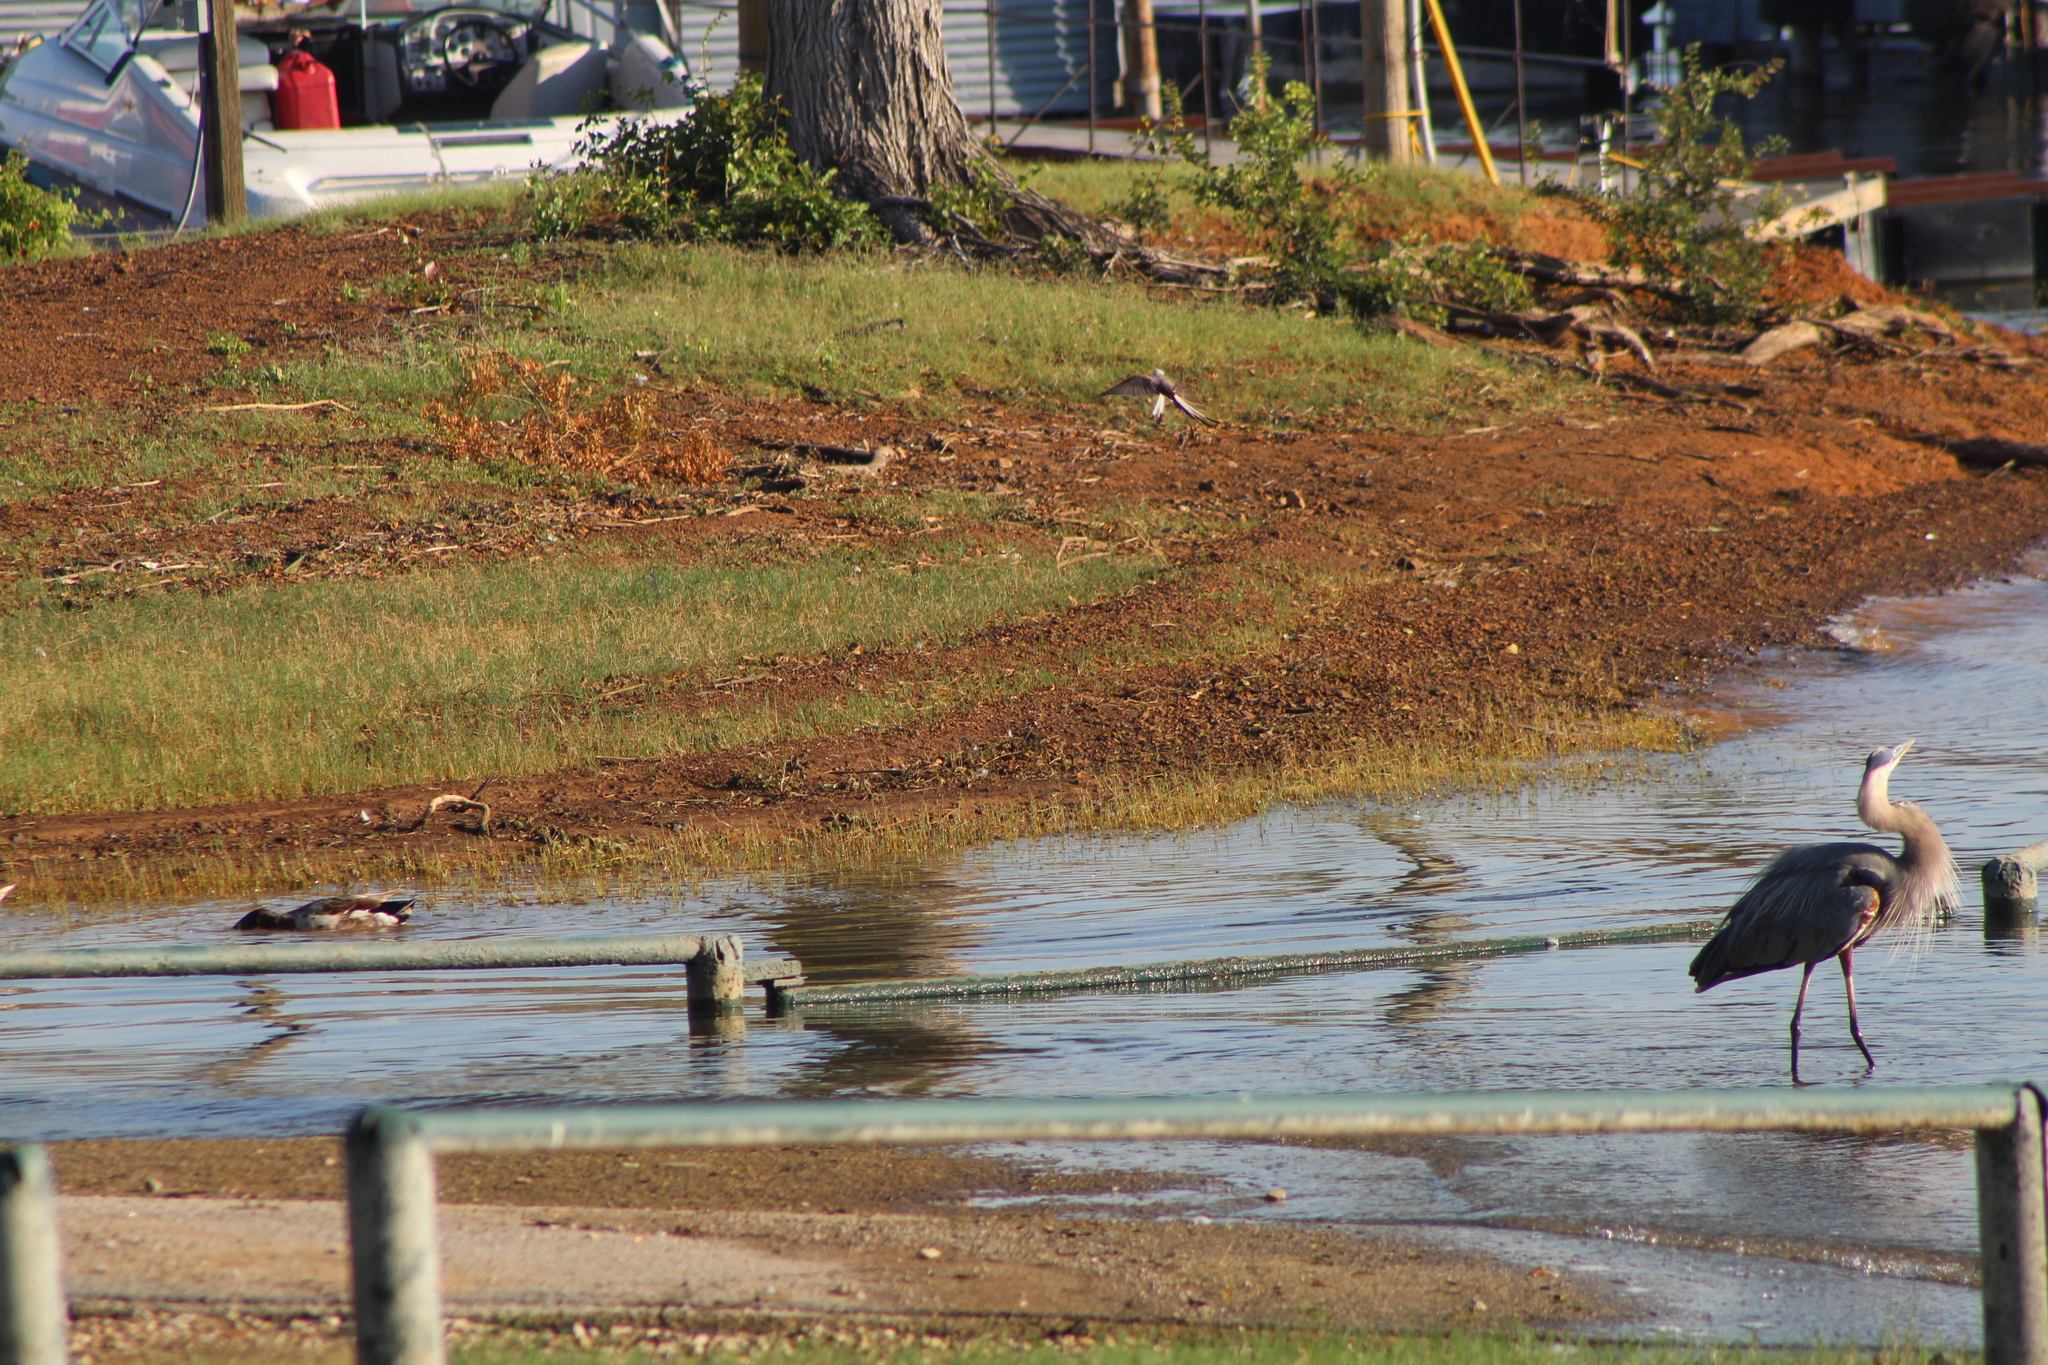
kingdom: Animalia
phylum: Chordata
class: Aves
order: Pelecaniformes
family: Ardeidae
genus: Ardea
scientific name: Ardea herodias
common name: Great blue heron
